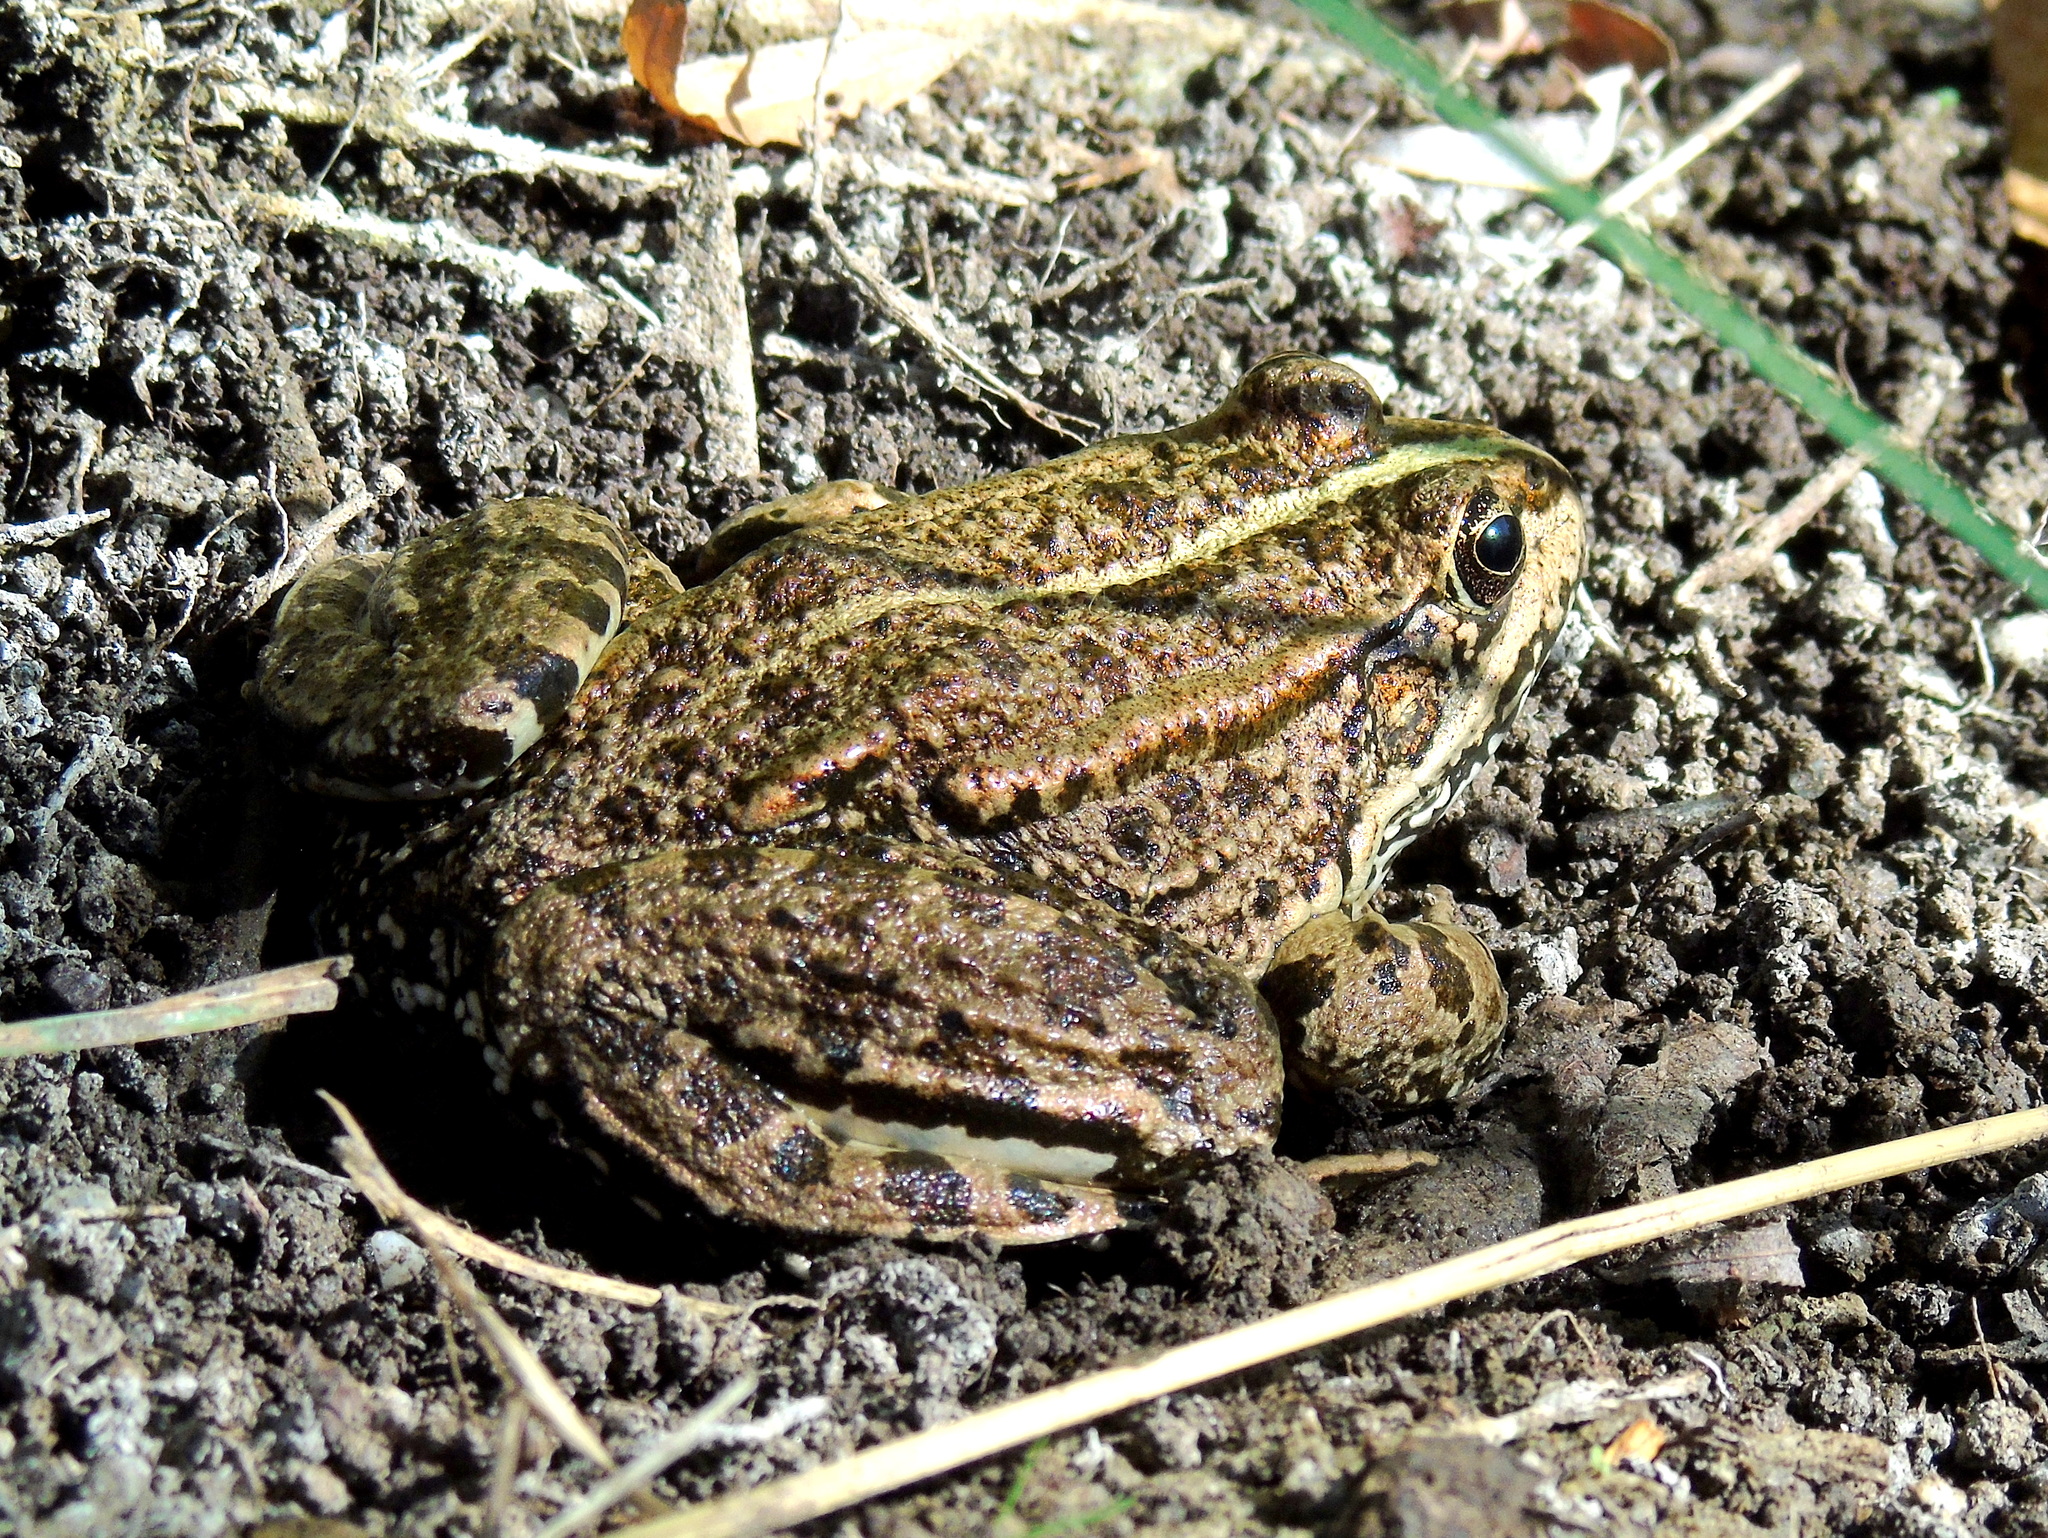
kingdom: Animalia
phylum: Chordata
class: Amphibia
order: Anura
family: Ranidae
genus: Pelophylax
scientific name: Pelophylax ridibundus
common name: Marsh frog
